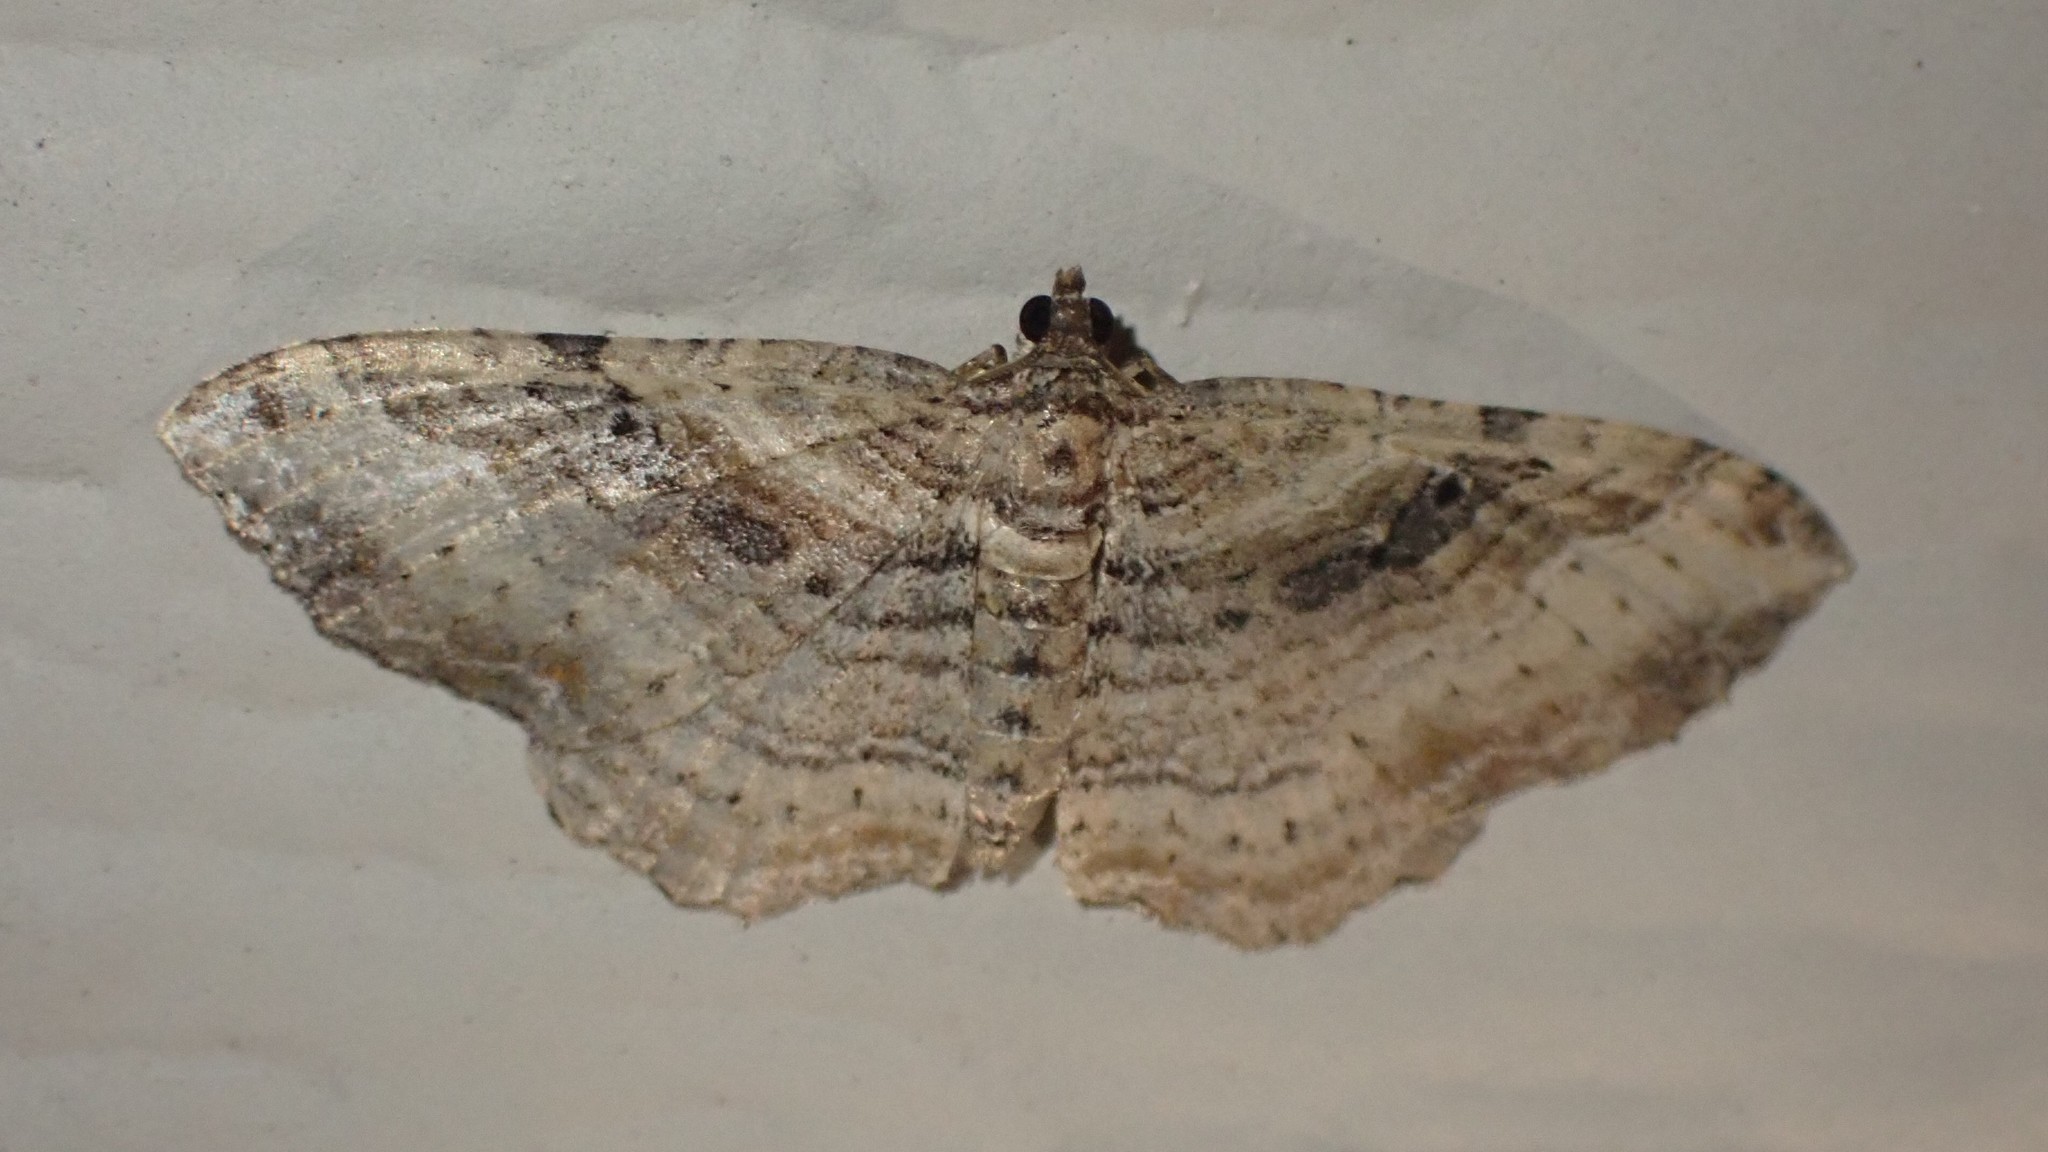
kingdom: Animalia
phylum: Arthropoda
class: Insecta
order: Lepidoptera
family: Geometridae
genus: Costaconvexa
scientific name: Costaconvexa centrostrigaria
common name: Bent-line carpet
